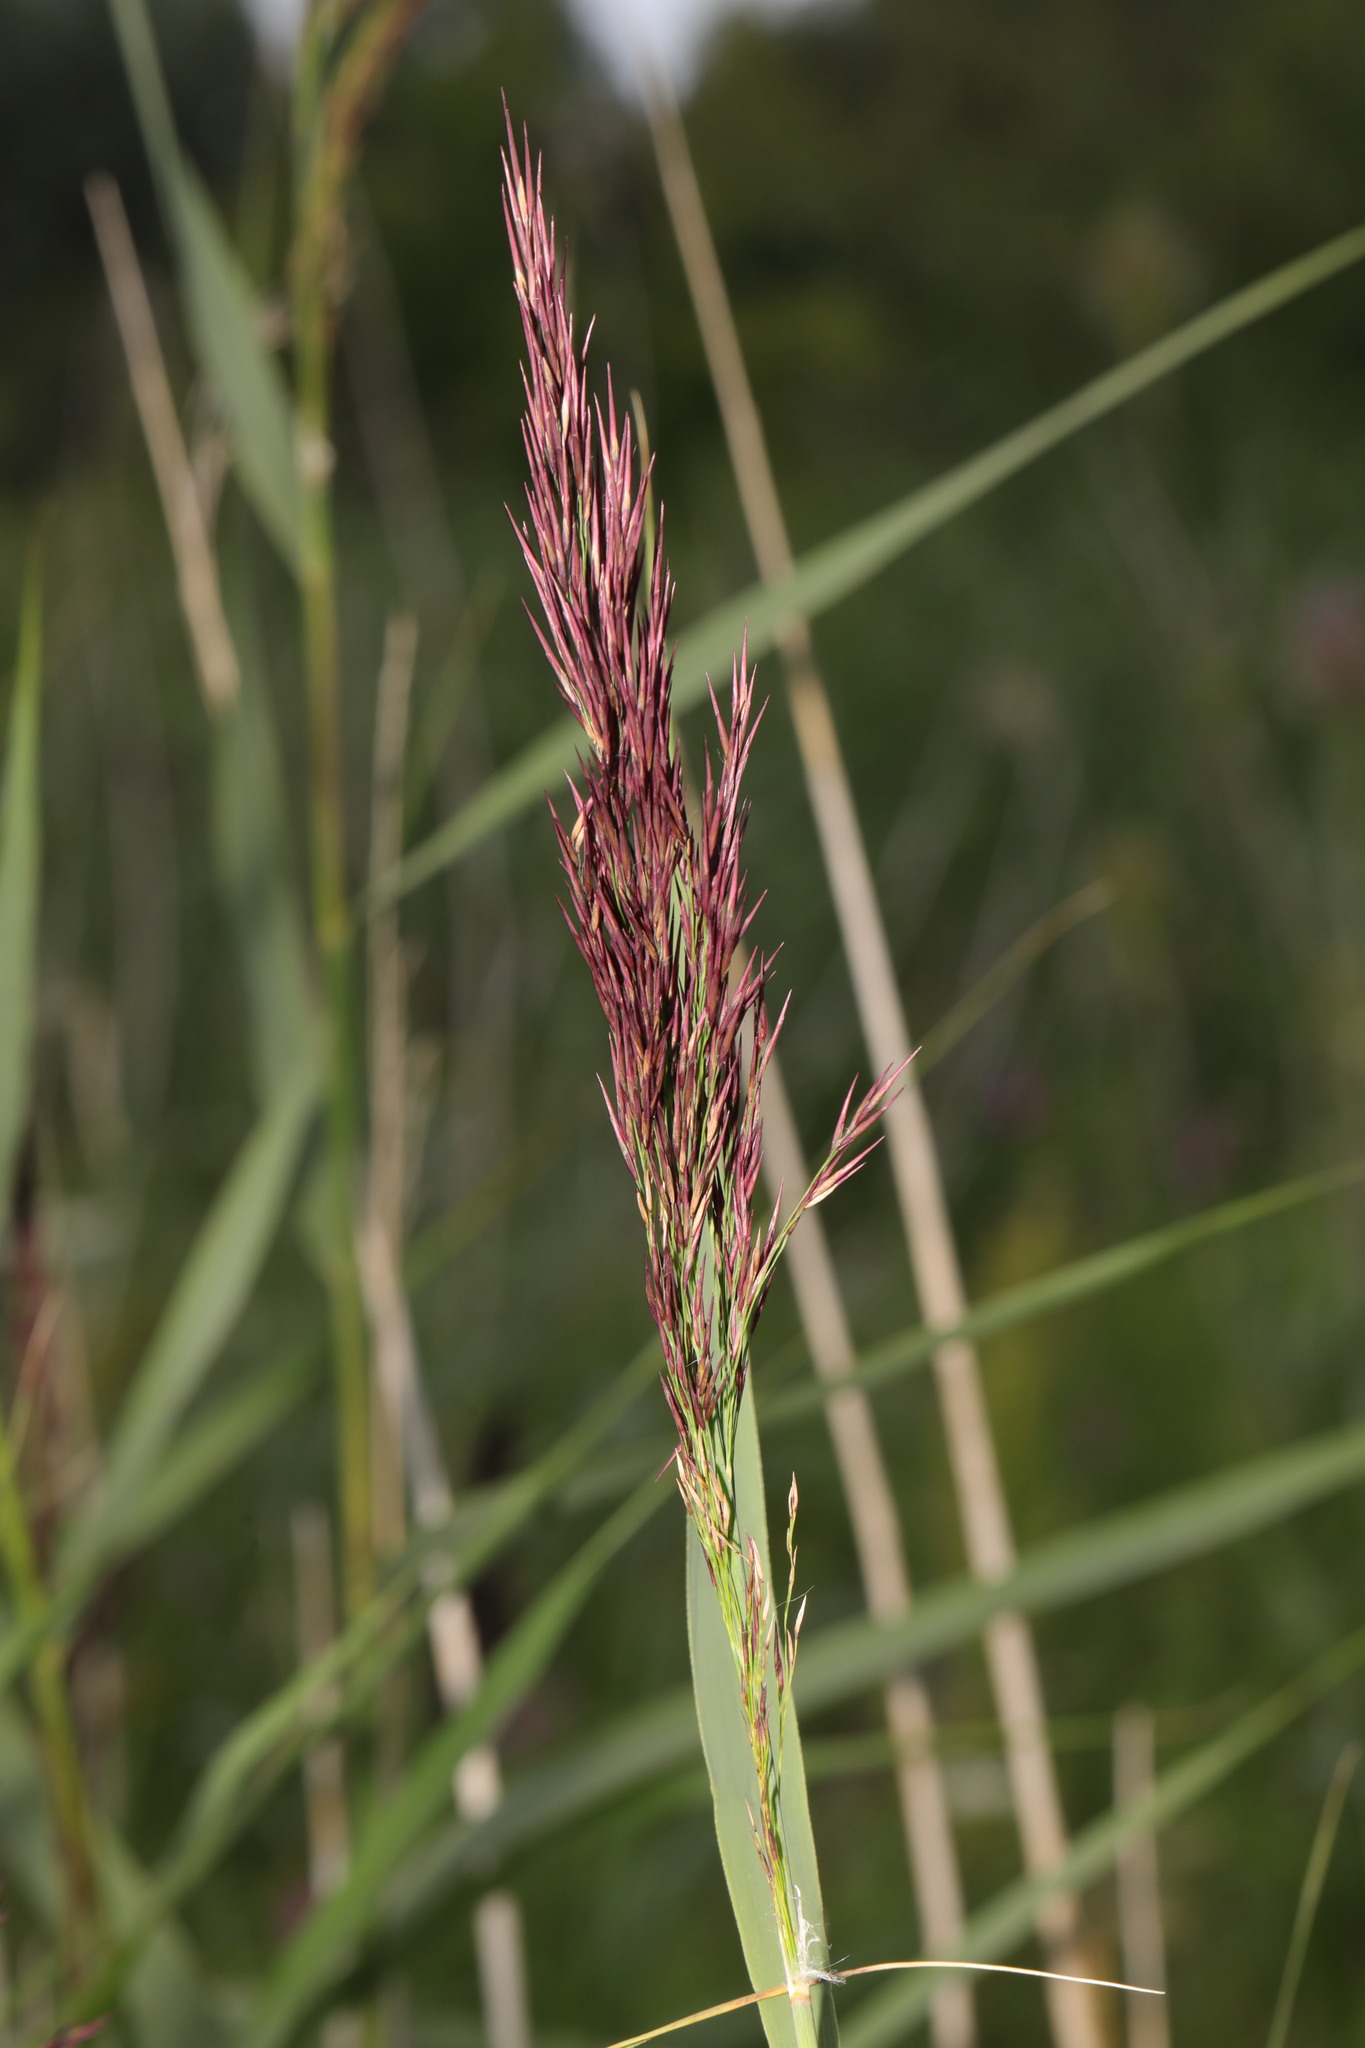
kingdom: Plantae
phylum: Tracheophyta
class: Liliopsida
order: Poales
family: Poaceae
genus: Phragmites
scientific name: Phragmites australis
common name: Common reed
